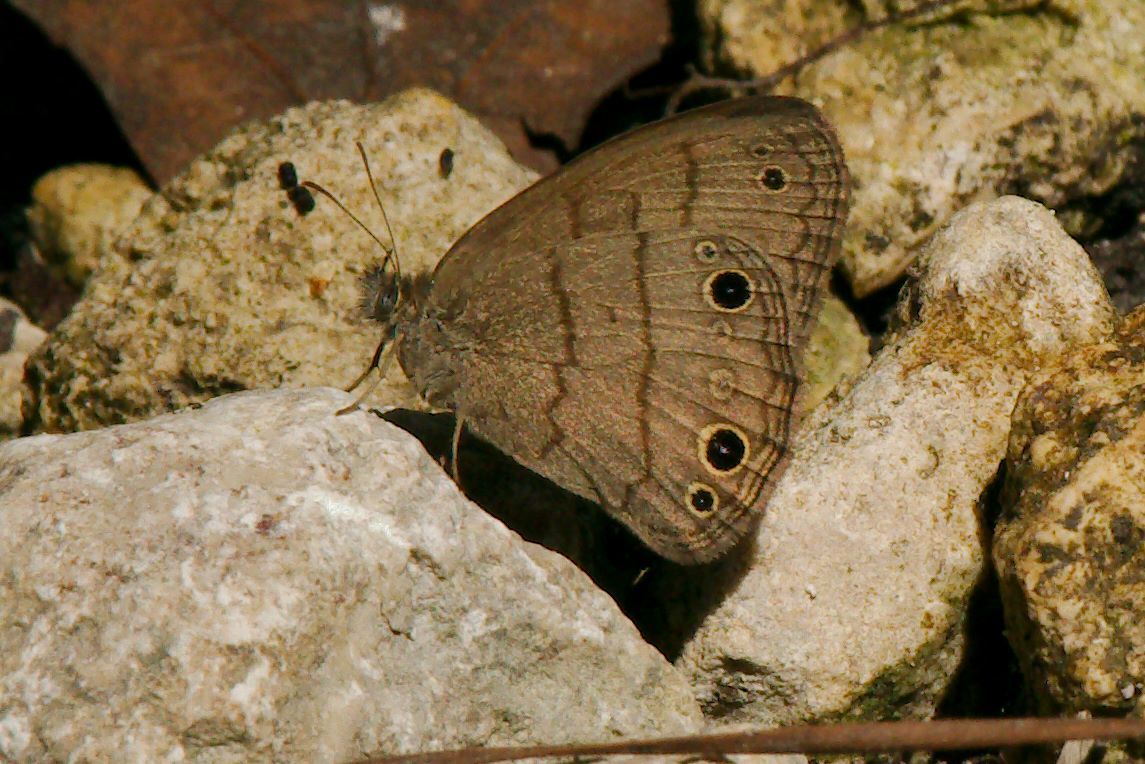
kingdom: Animalia
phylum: Arthropoda
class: Insecta
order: Lepidoptera
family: Nymphalidae
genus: Hermeuptychia
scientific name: Hermeuptychia intricata
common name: Intricate satyr
